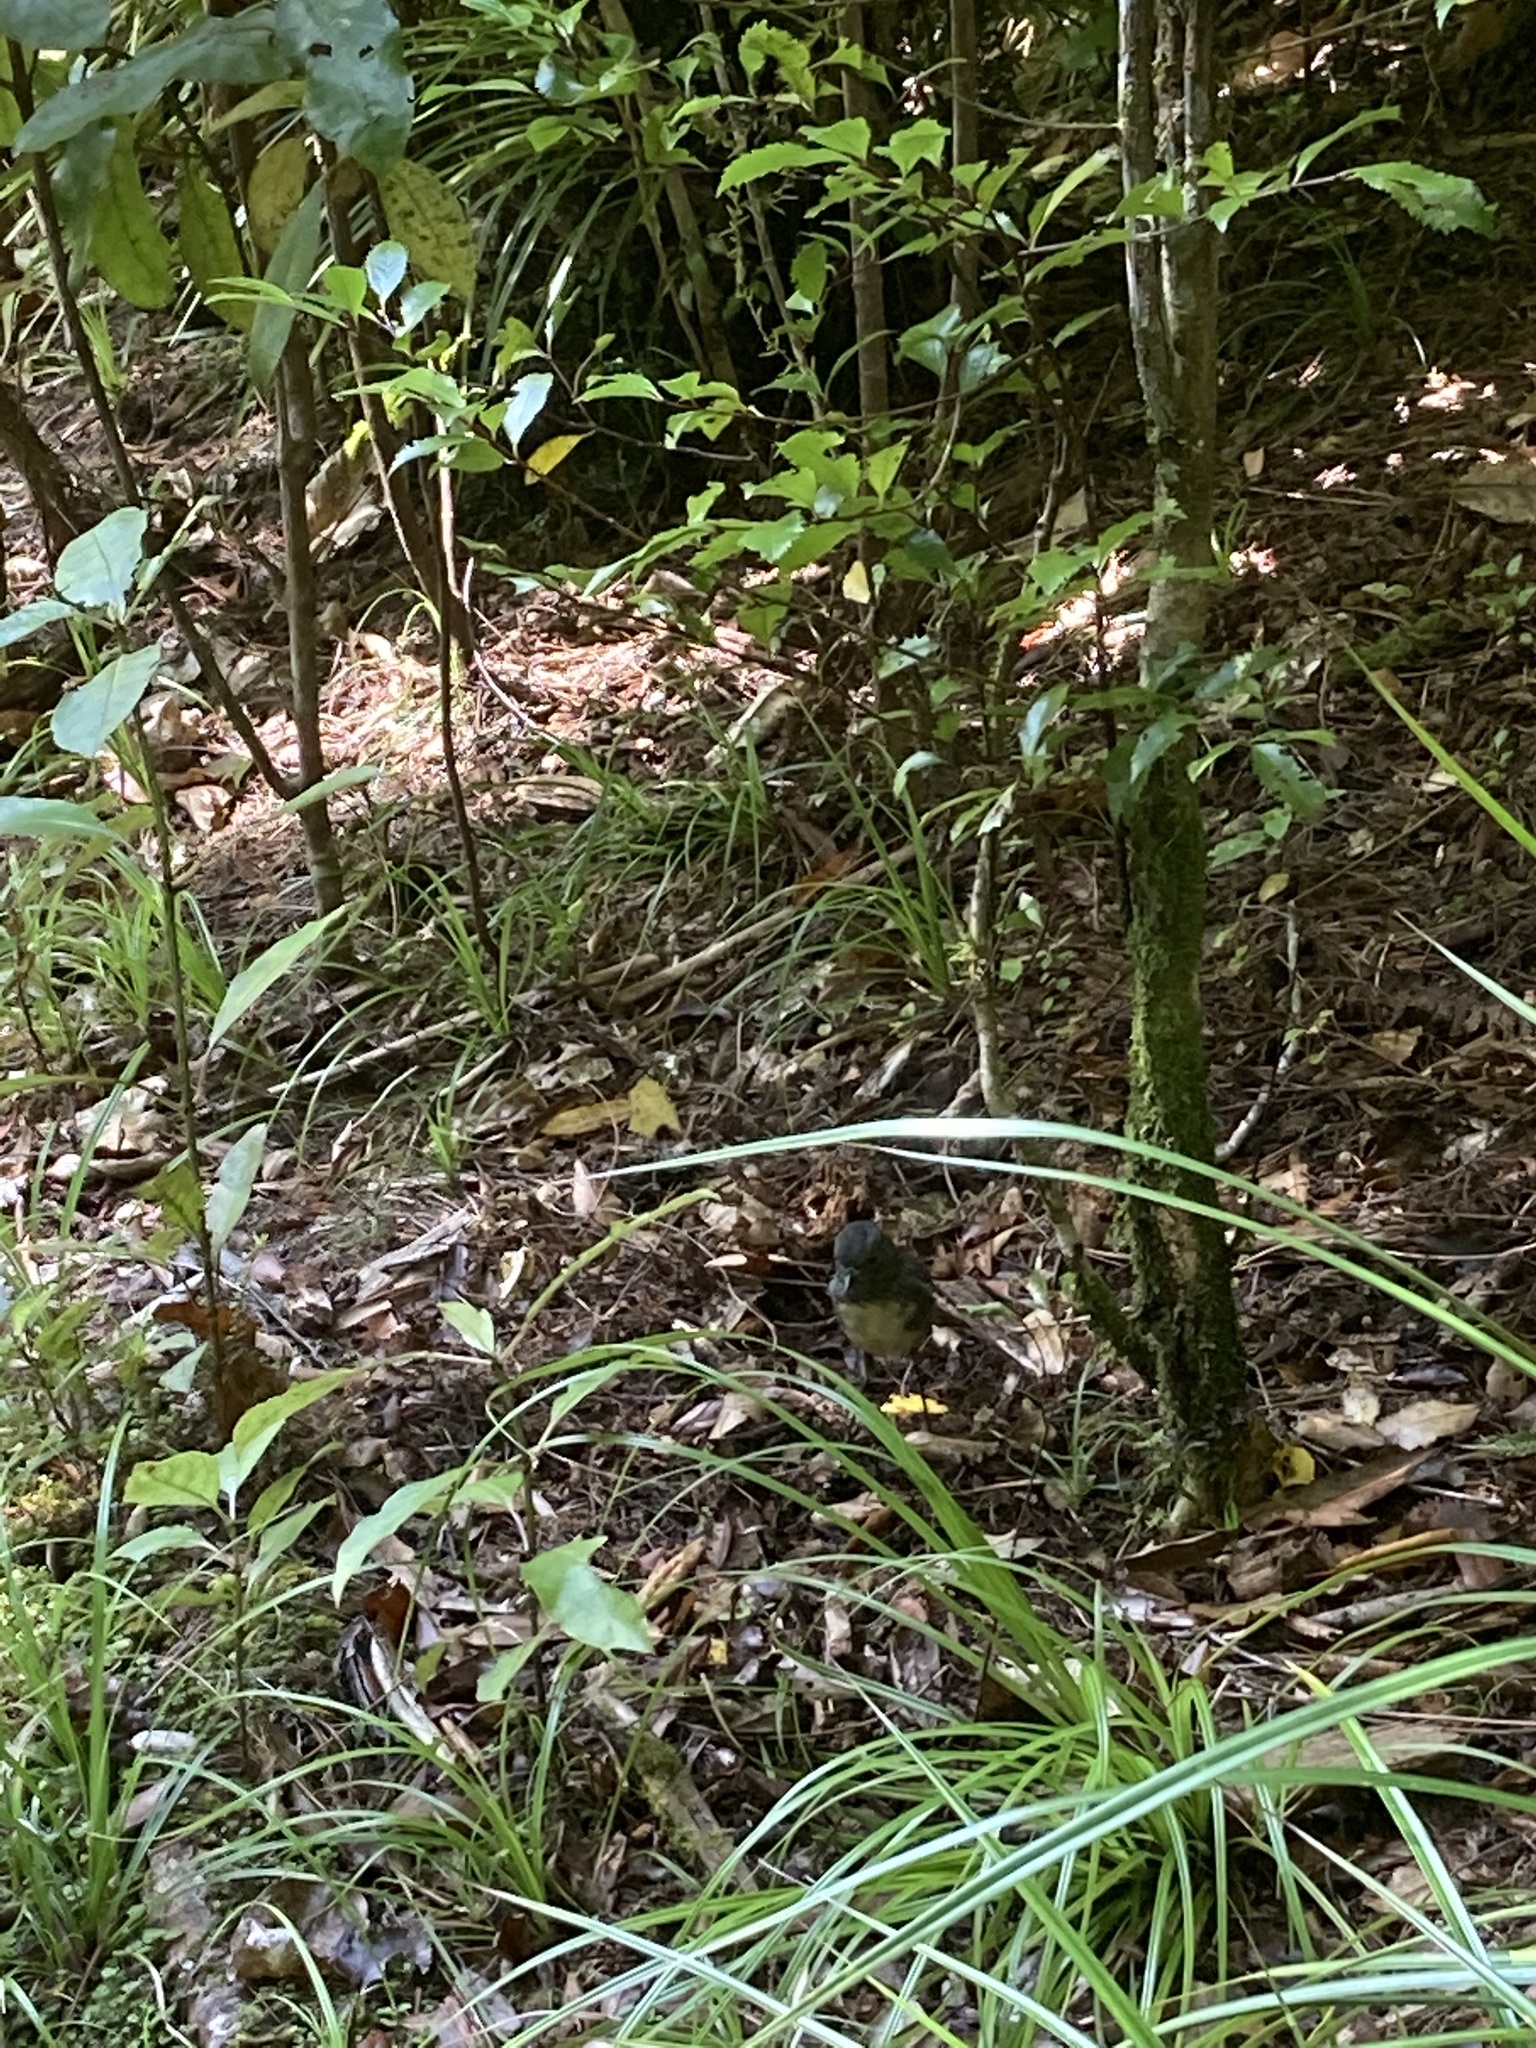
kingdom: Animalia
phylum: Chordata
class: Aves
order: Passeriformes
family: Petroicidae
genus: Petroica
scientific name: Petroica australis
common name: New zealand robin
